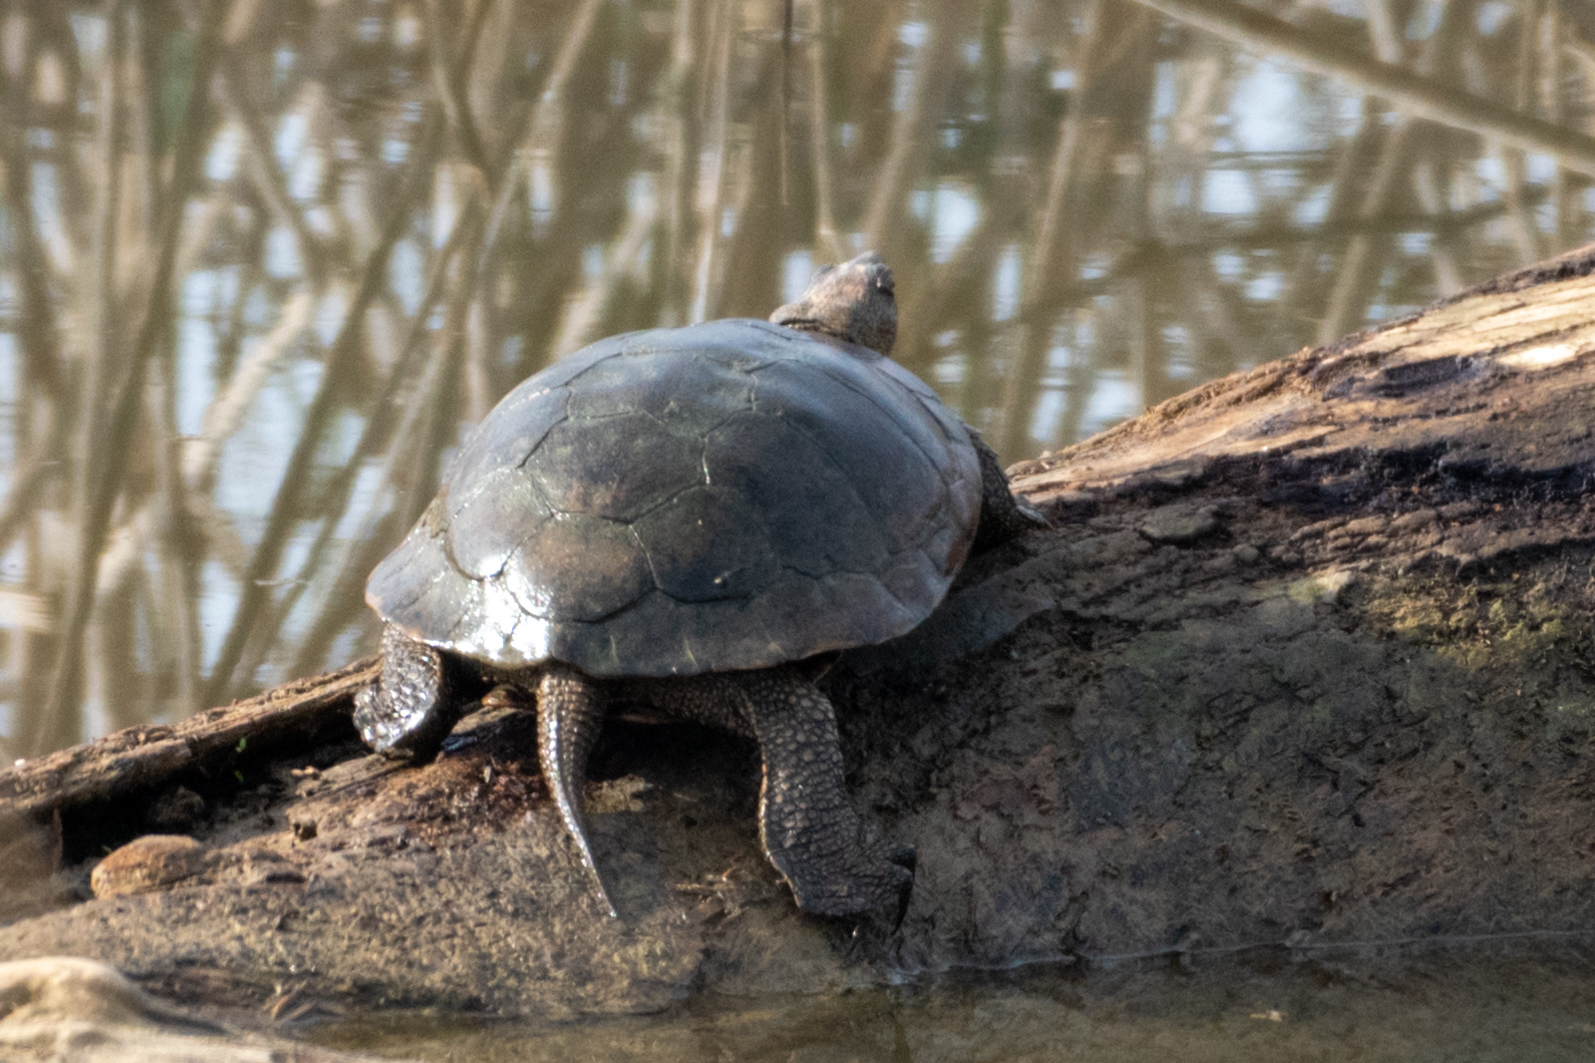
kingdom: Animalia
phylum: Chordata
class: Testudines
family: Emydidae
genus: Actinemys
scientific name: Actinemys marmorata
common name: Western pond turtle
